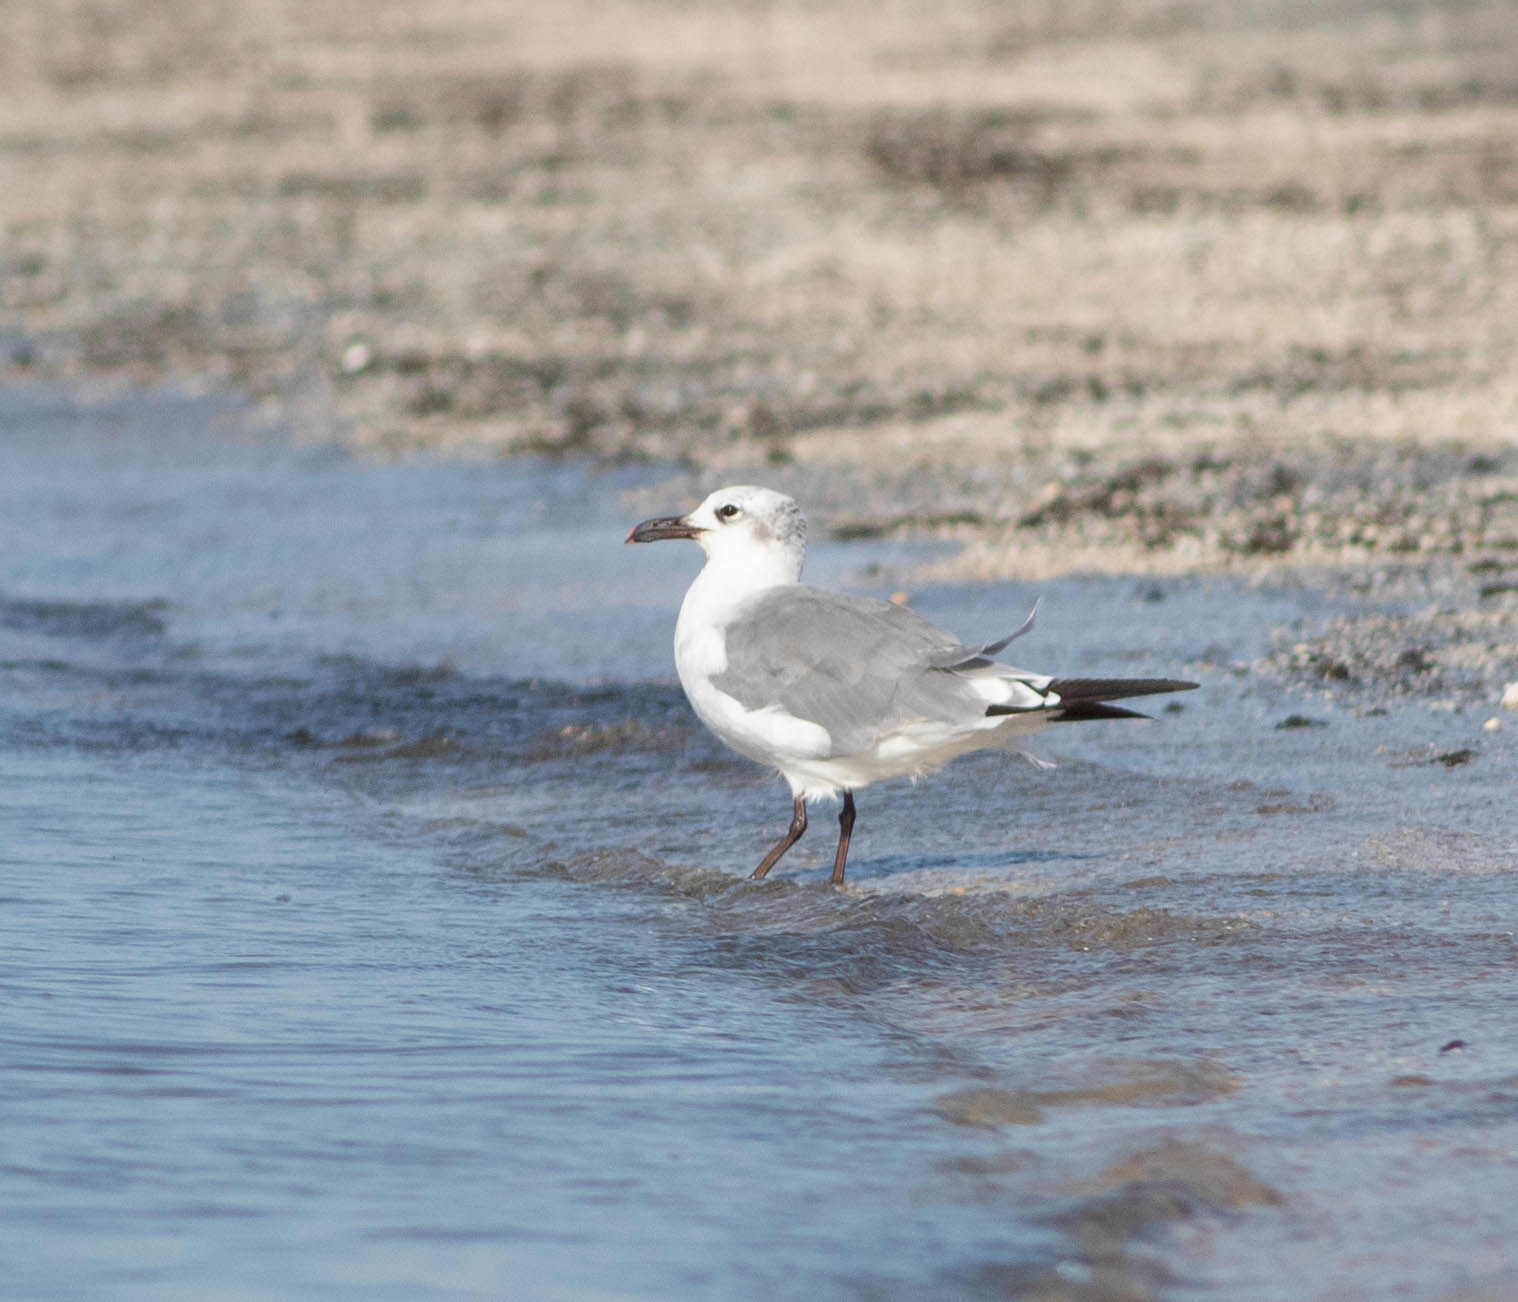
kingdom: Animalia
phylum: Chordata
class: Aves
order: Charadriiformes
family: Laridae
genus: Leucophaeus
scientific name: Leucophaeus atricilla
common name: Laughing gull
